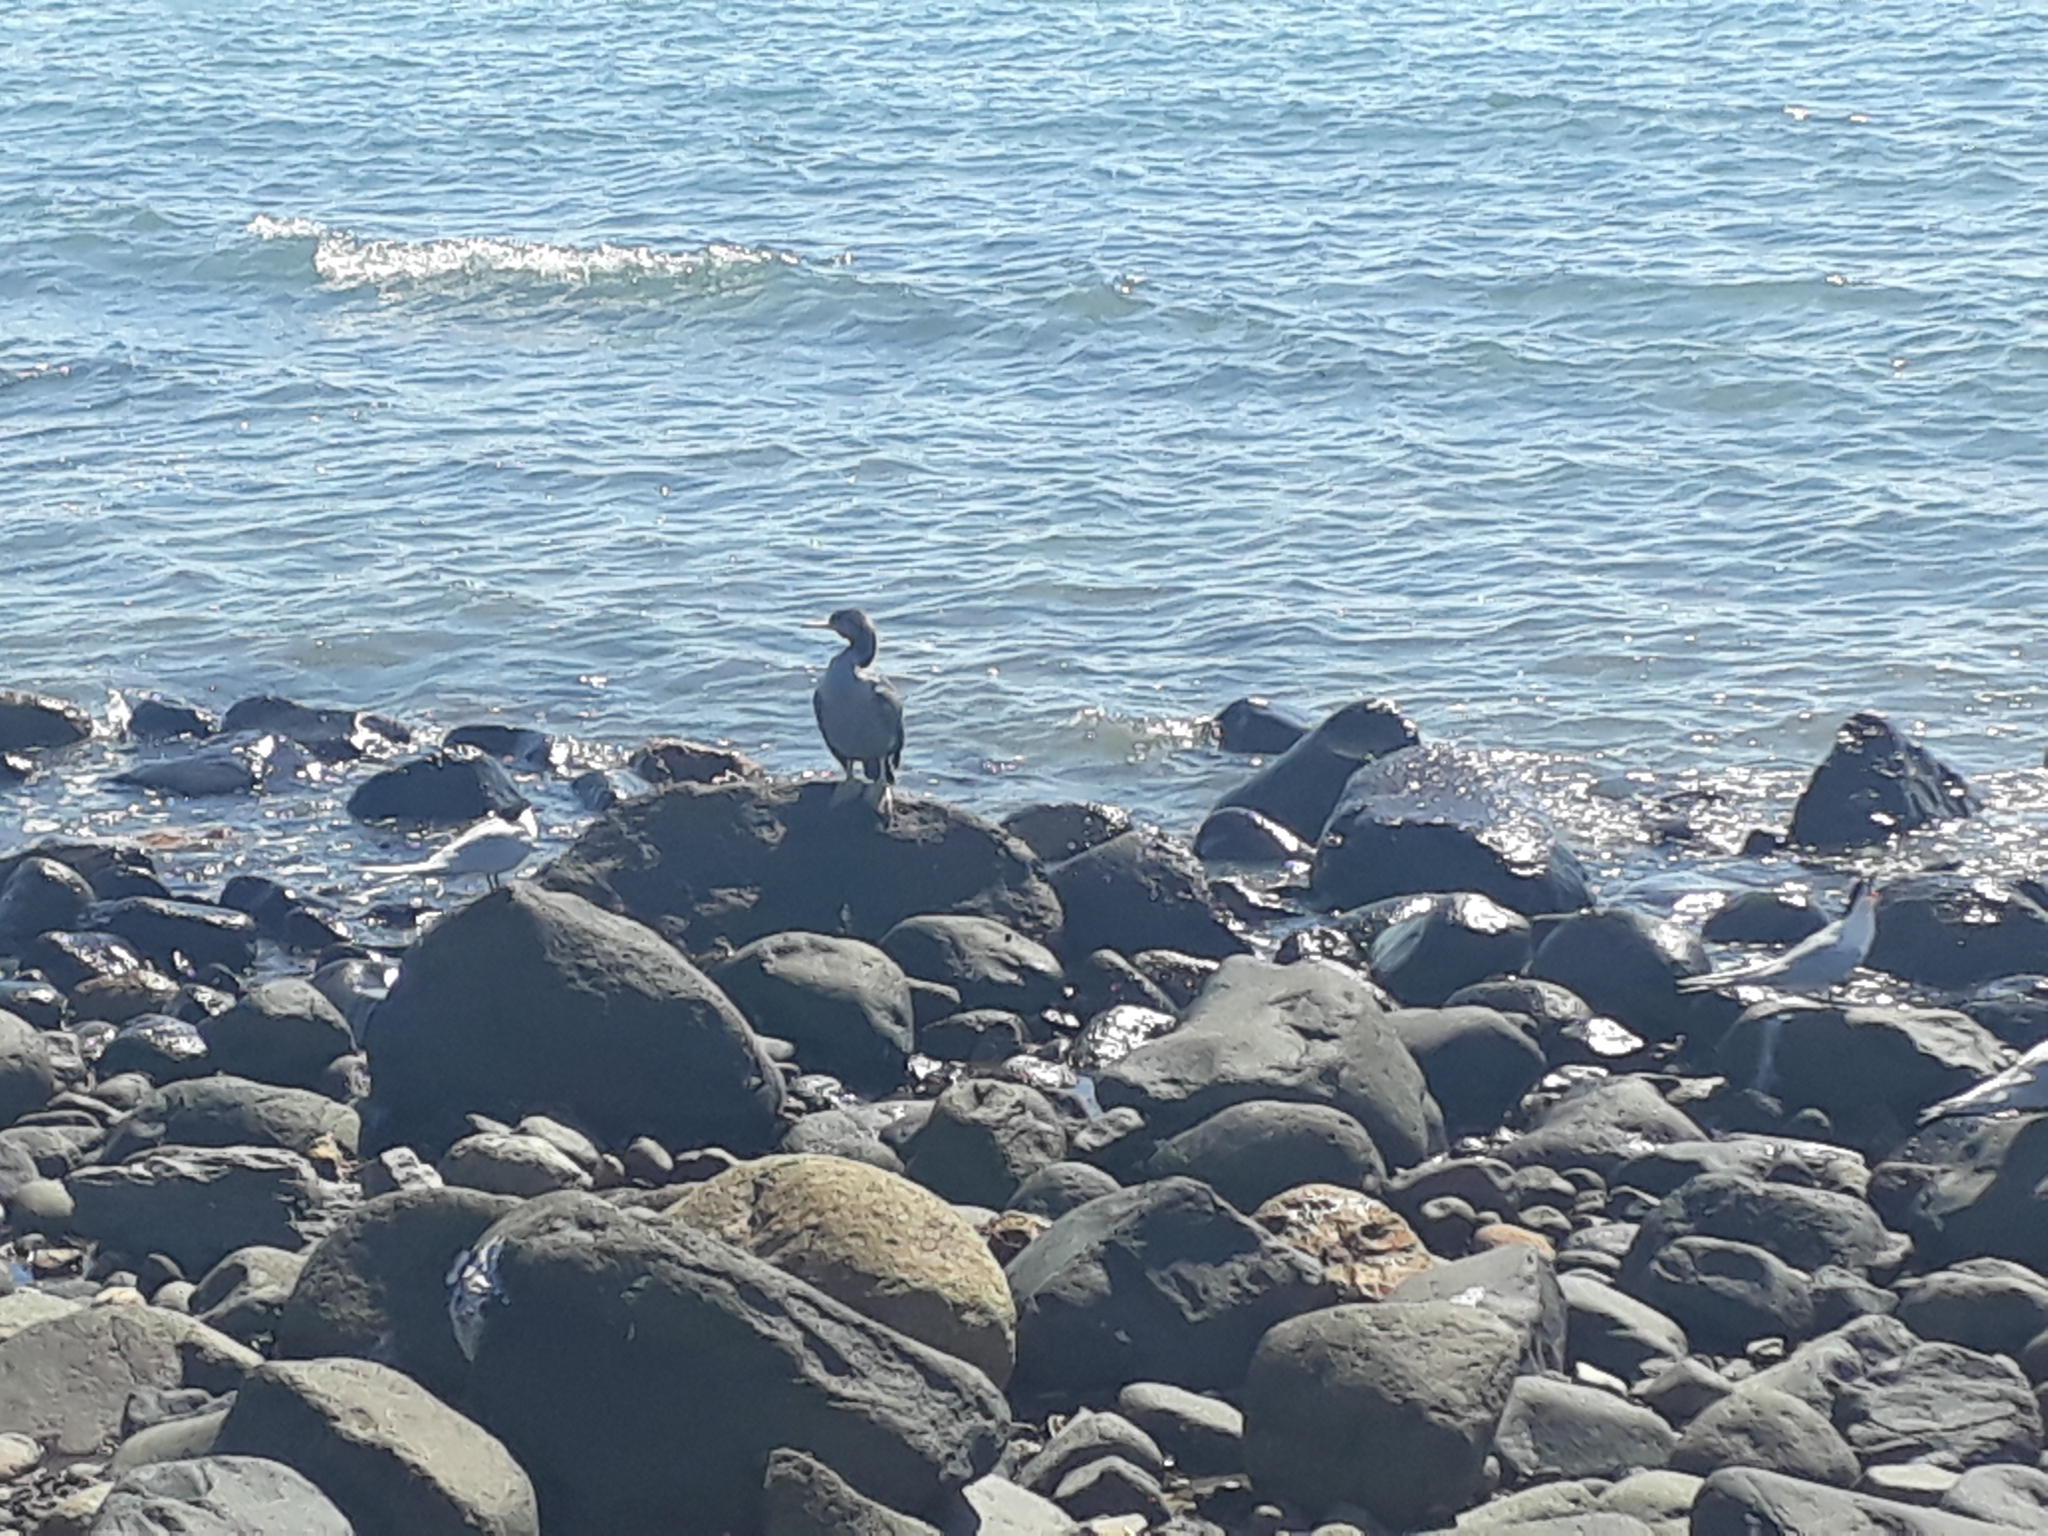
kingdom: Animalia
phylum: Chordata
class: Aves
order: Suliformes
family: Phalacrocoracidae
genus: Phalacrocorax
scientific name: Phalacrocorax punctatus
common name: Spotted shag
